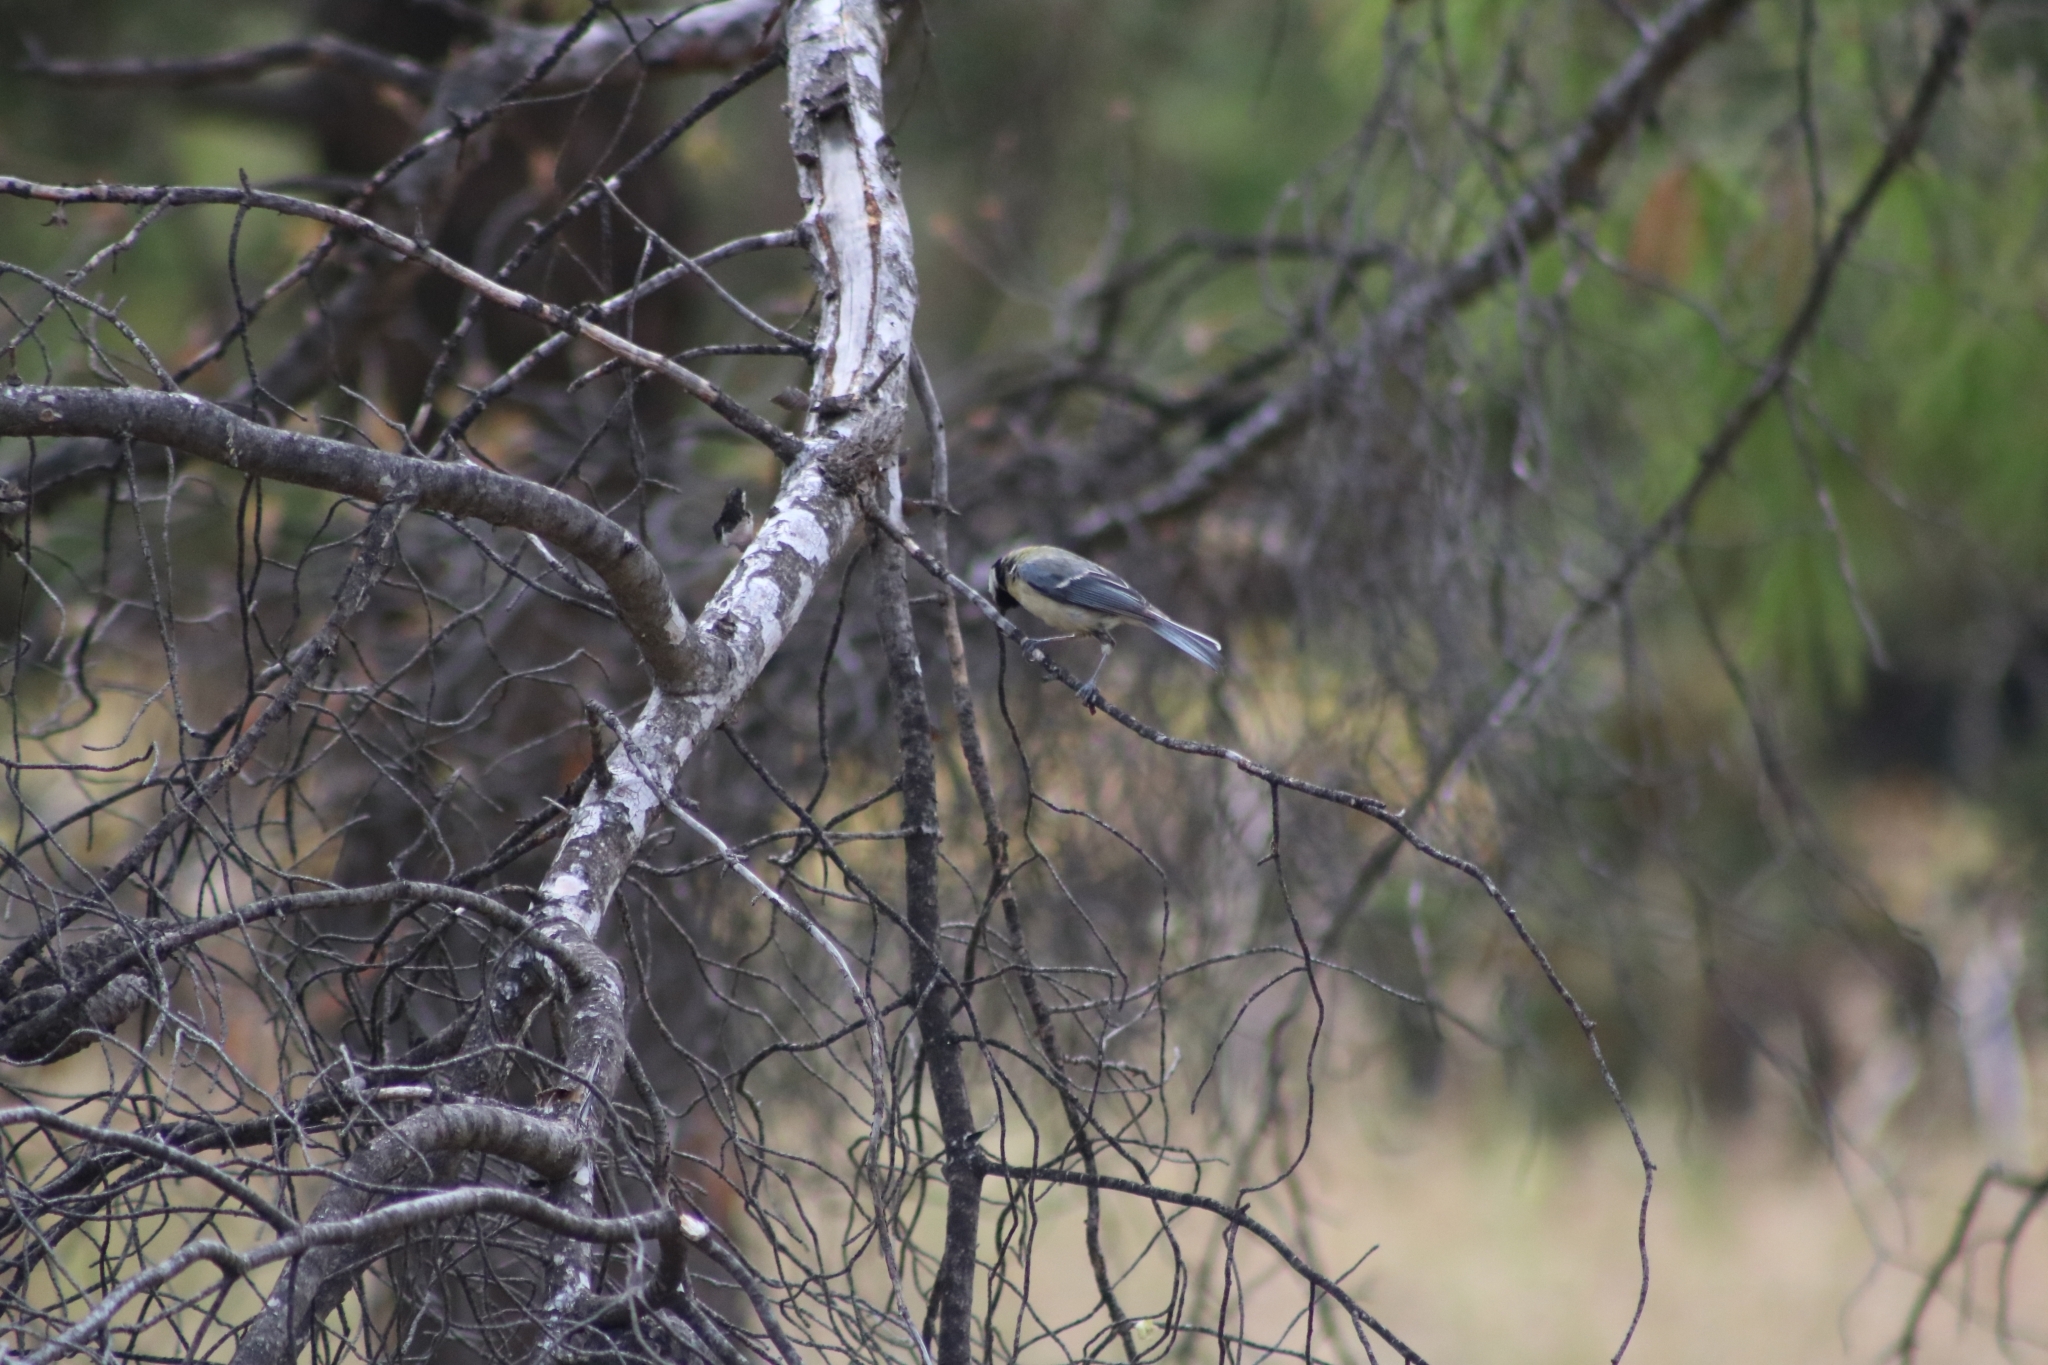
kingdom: Animalia
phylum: Chordata
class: Aves
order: Passeriformes
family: Paridae
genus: Parus
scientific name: Parus major
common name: Great tit
